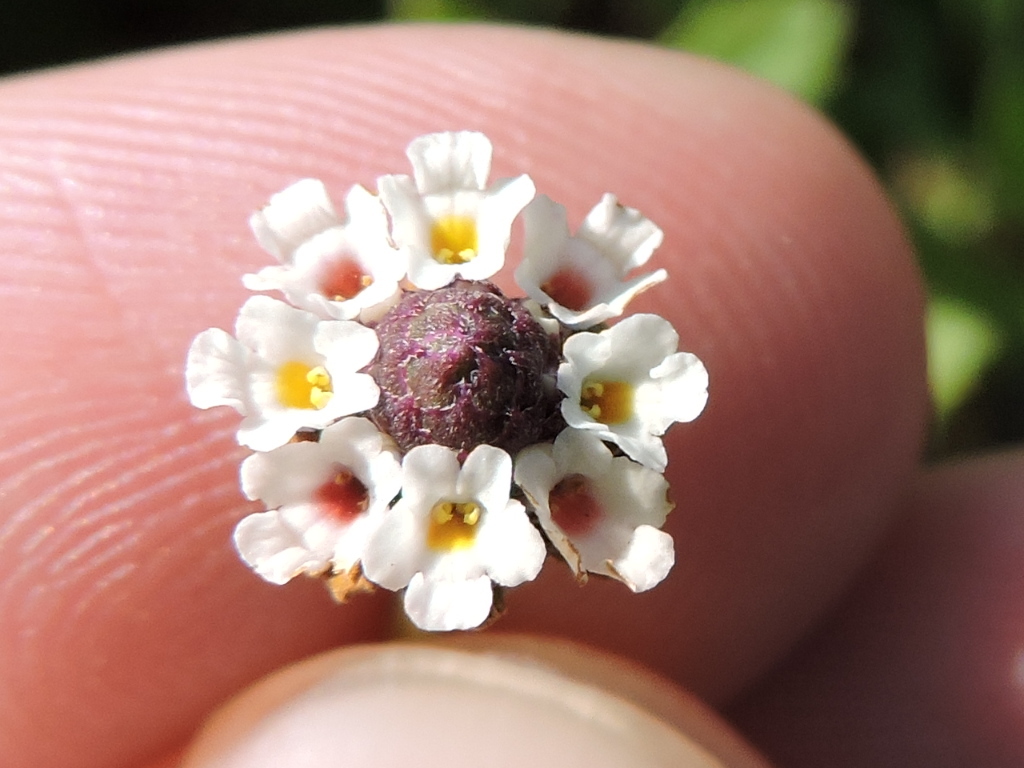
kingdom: Plantae
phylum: Tracheophyta
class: Magnoliopsida
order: Lamiales
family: Verbenaceae
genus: Phyla
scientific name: Phyla nodiflora
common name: Frogfruit
